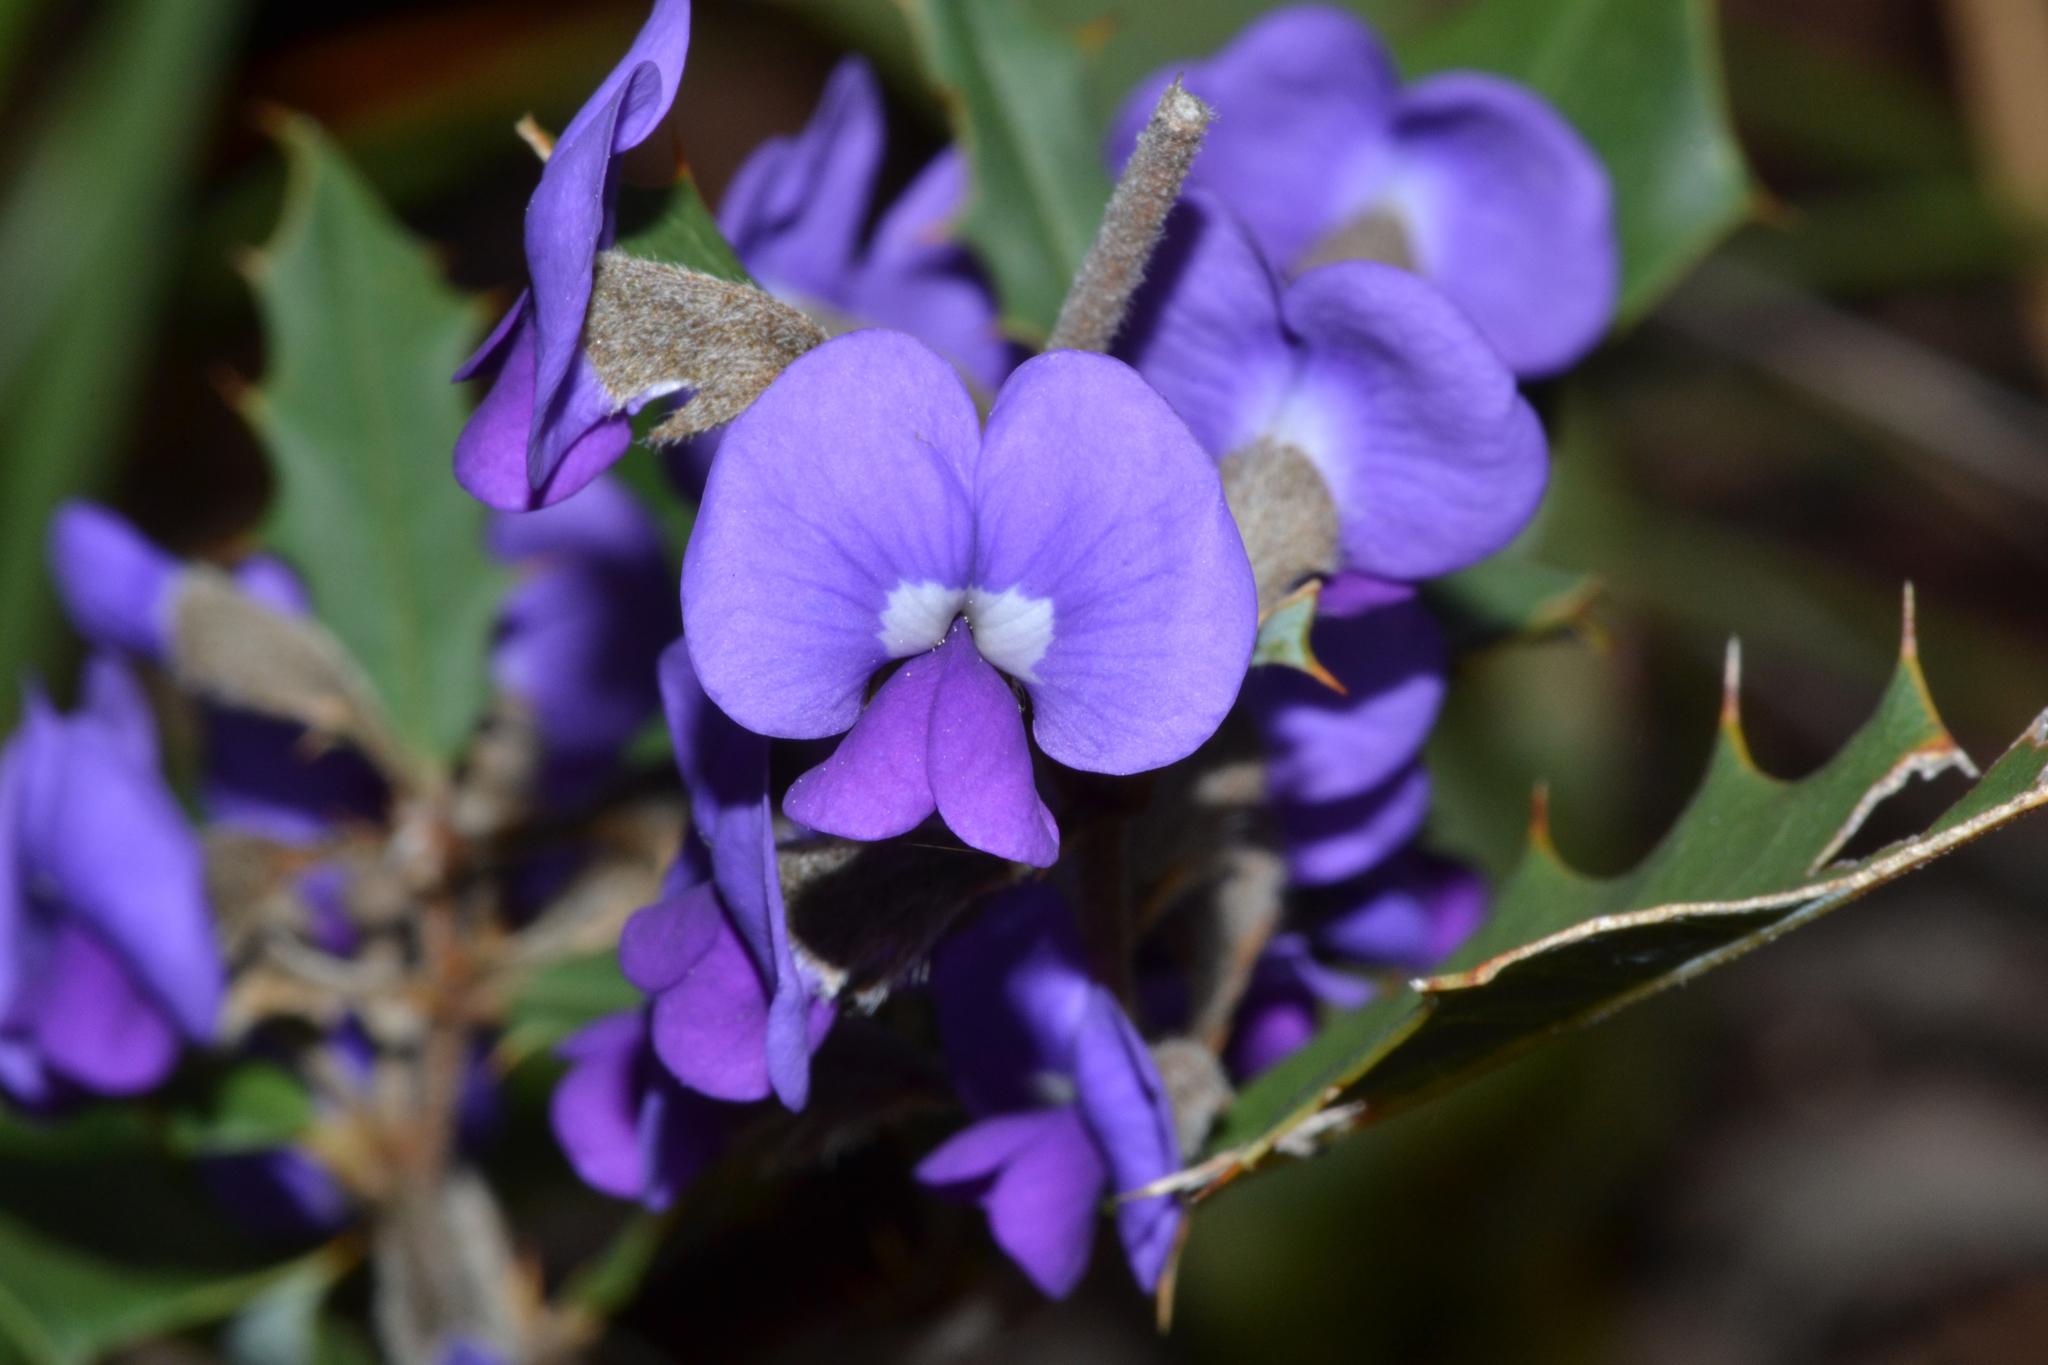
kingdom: Plantae
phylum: Tracheophyta
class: Magnoliopsida
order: Fabales
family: Fabaceae
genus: Hovea
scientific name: Hovea chorizemifolia
